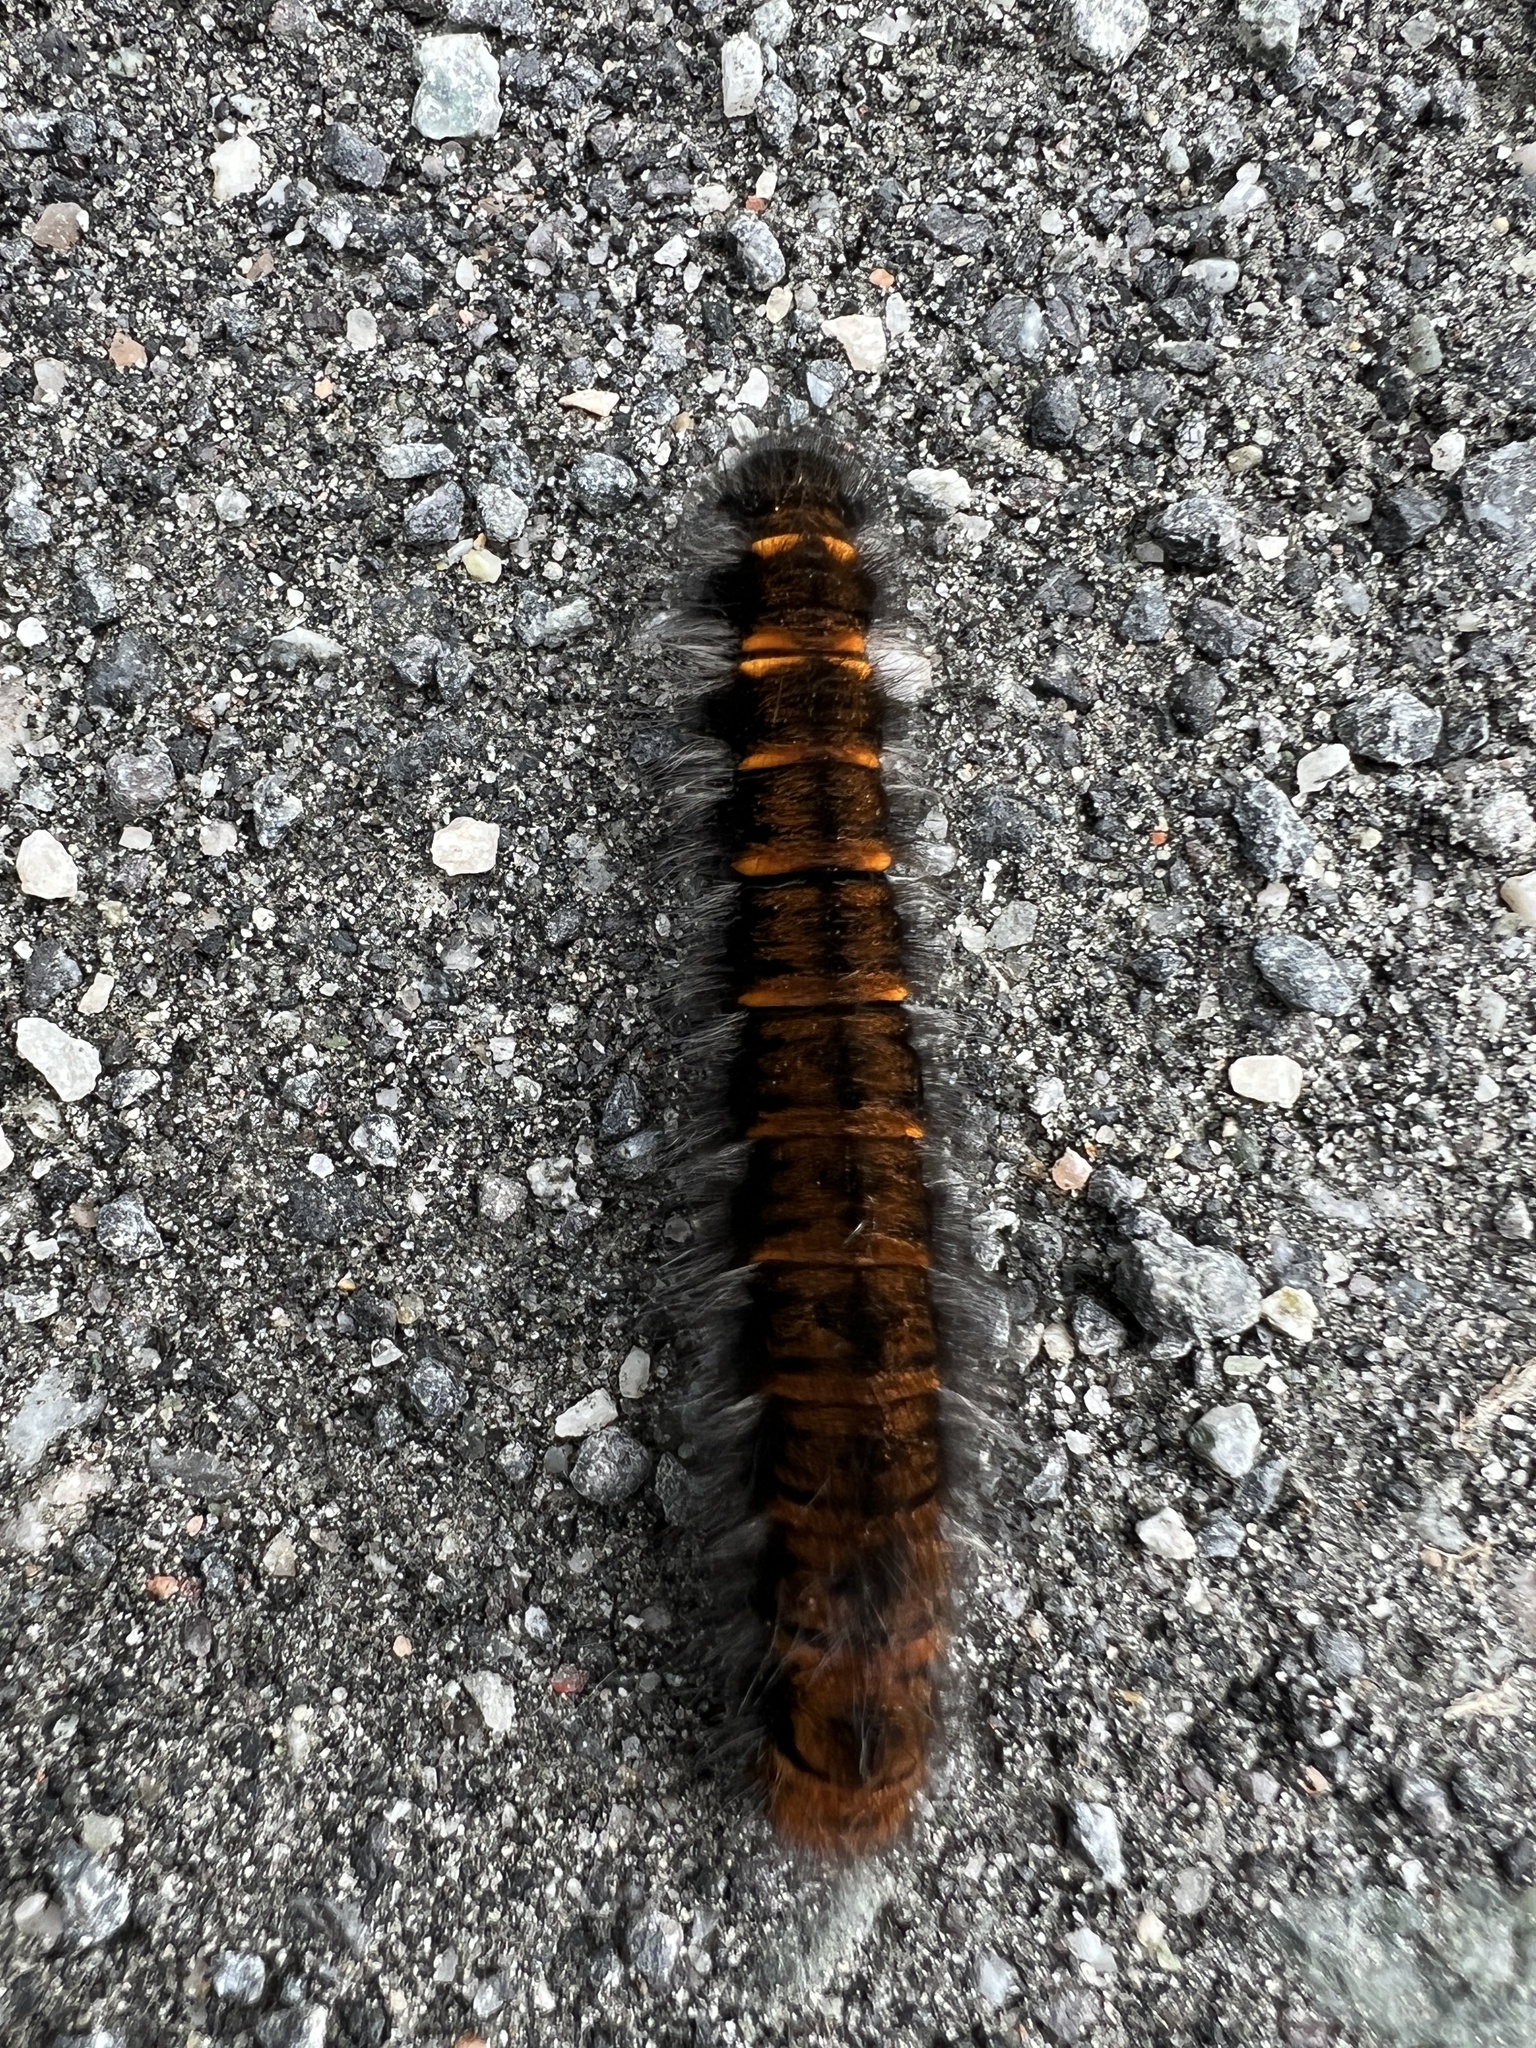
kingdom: Animalia
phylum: Arthropoda
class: Insecta
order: Lepidoptera
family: Lasiocampidae
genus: Macrothylacia
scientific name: Macrothylacia rubi
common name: Fox moth
